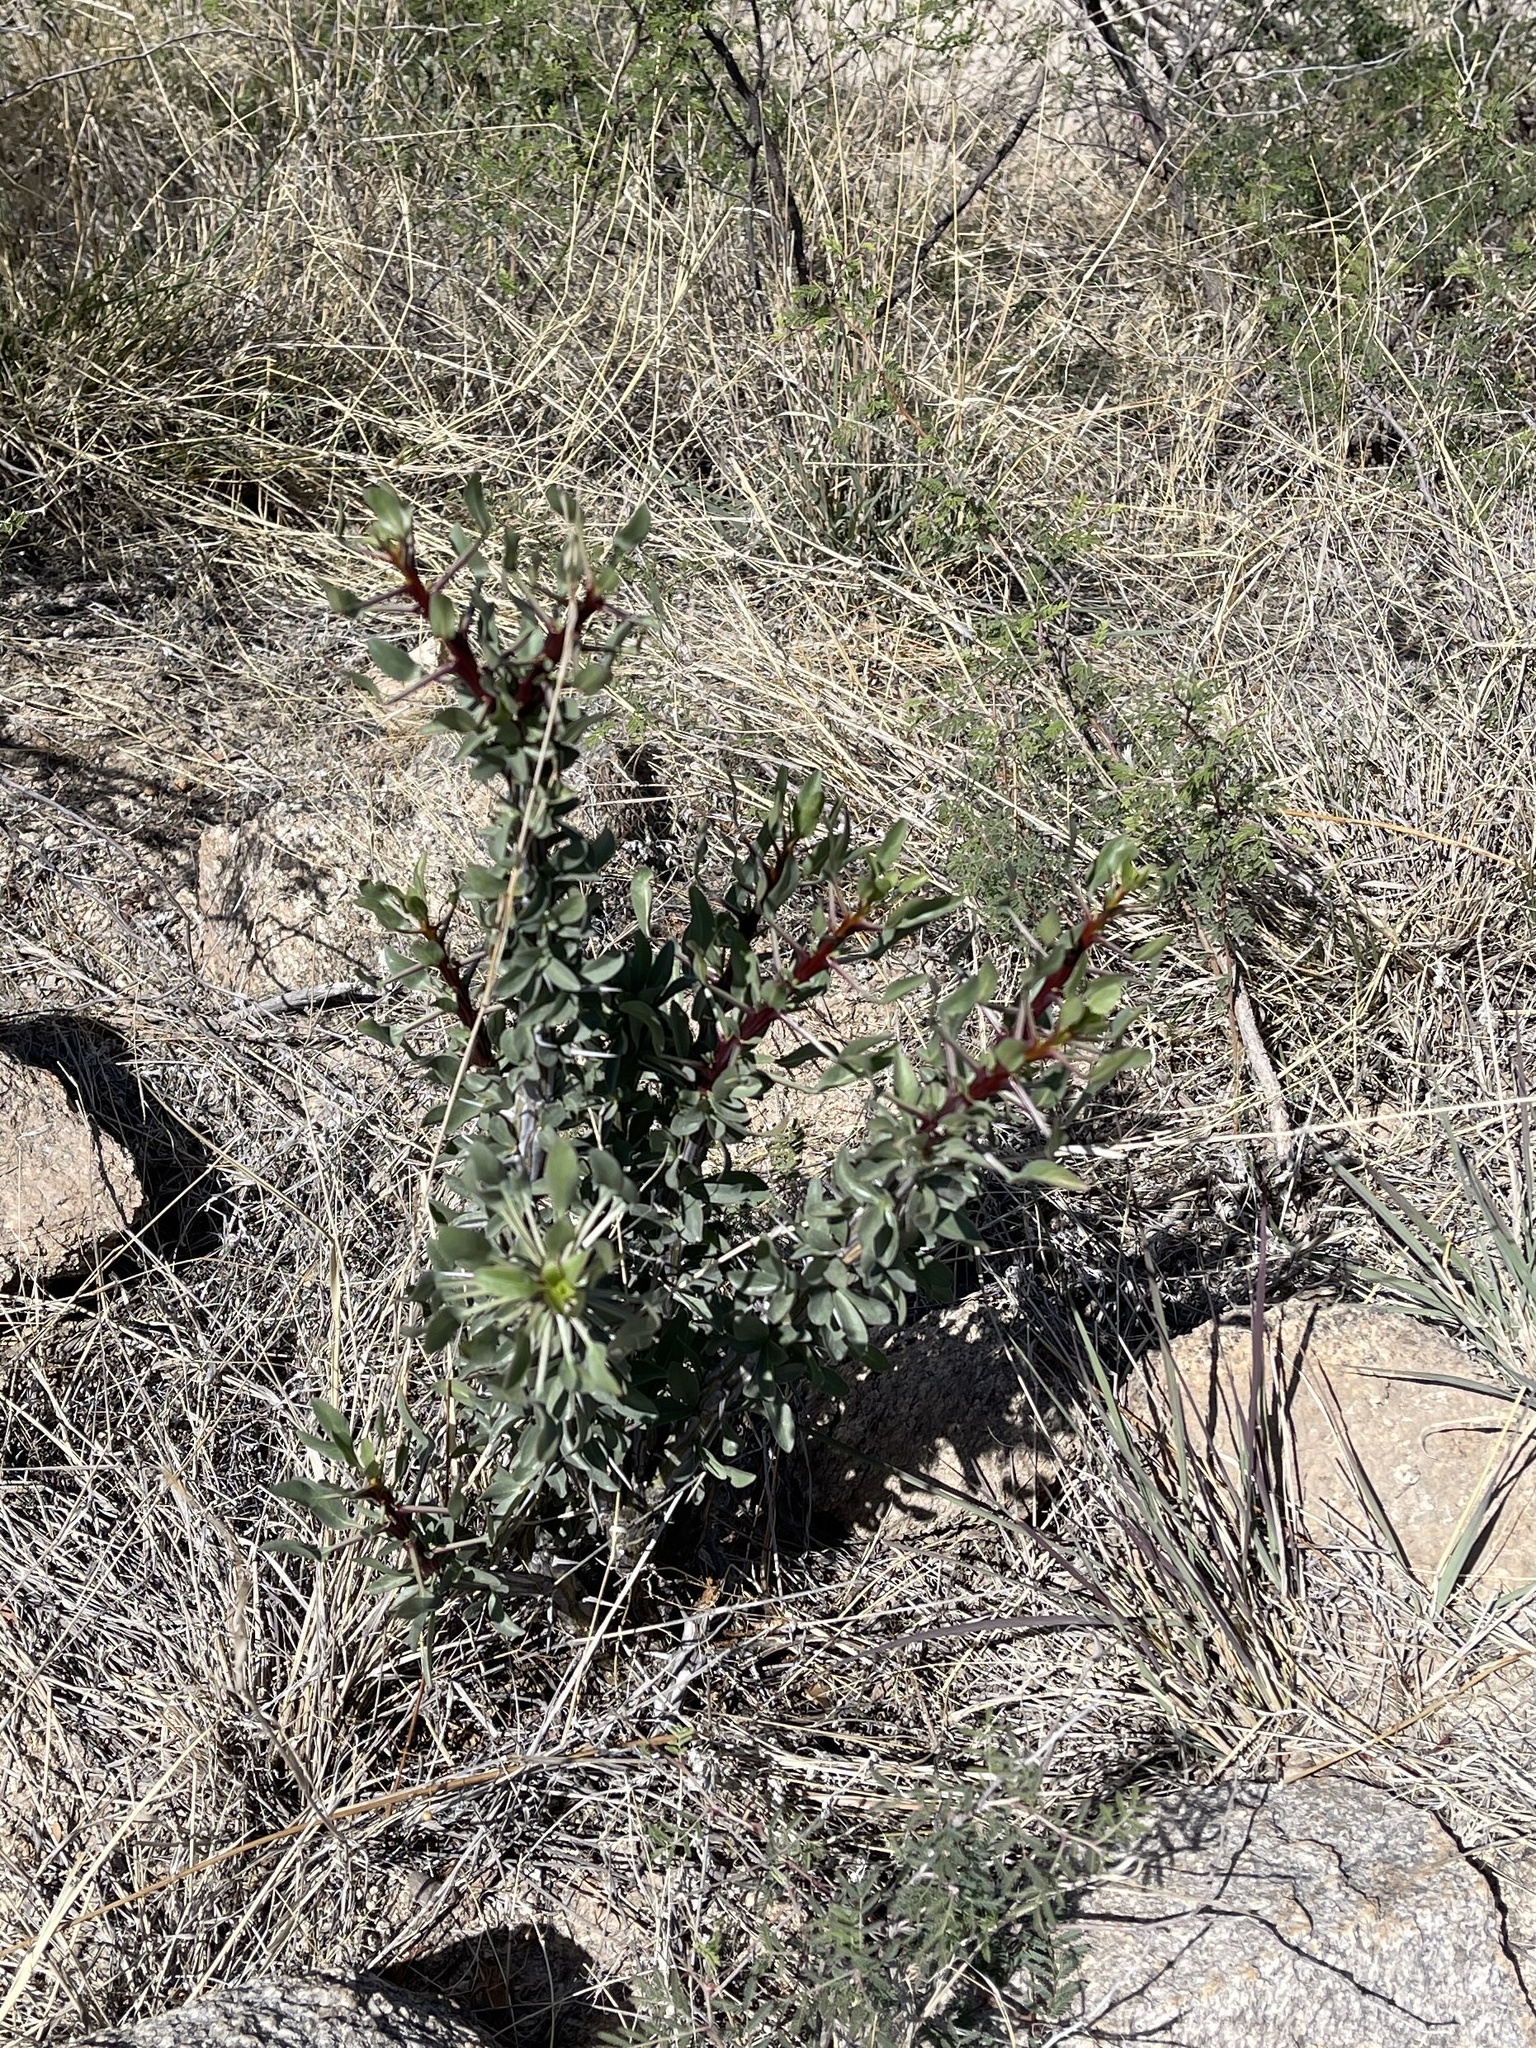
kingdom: Plantae
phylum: Tracheophyta
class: Magnoliopsida
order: Ericales
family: Fouquieriaceae
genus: Fouquieria
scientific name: Fouquieria splendens
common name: Vine-cactus
